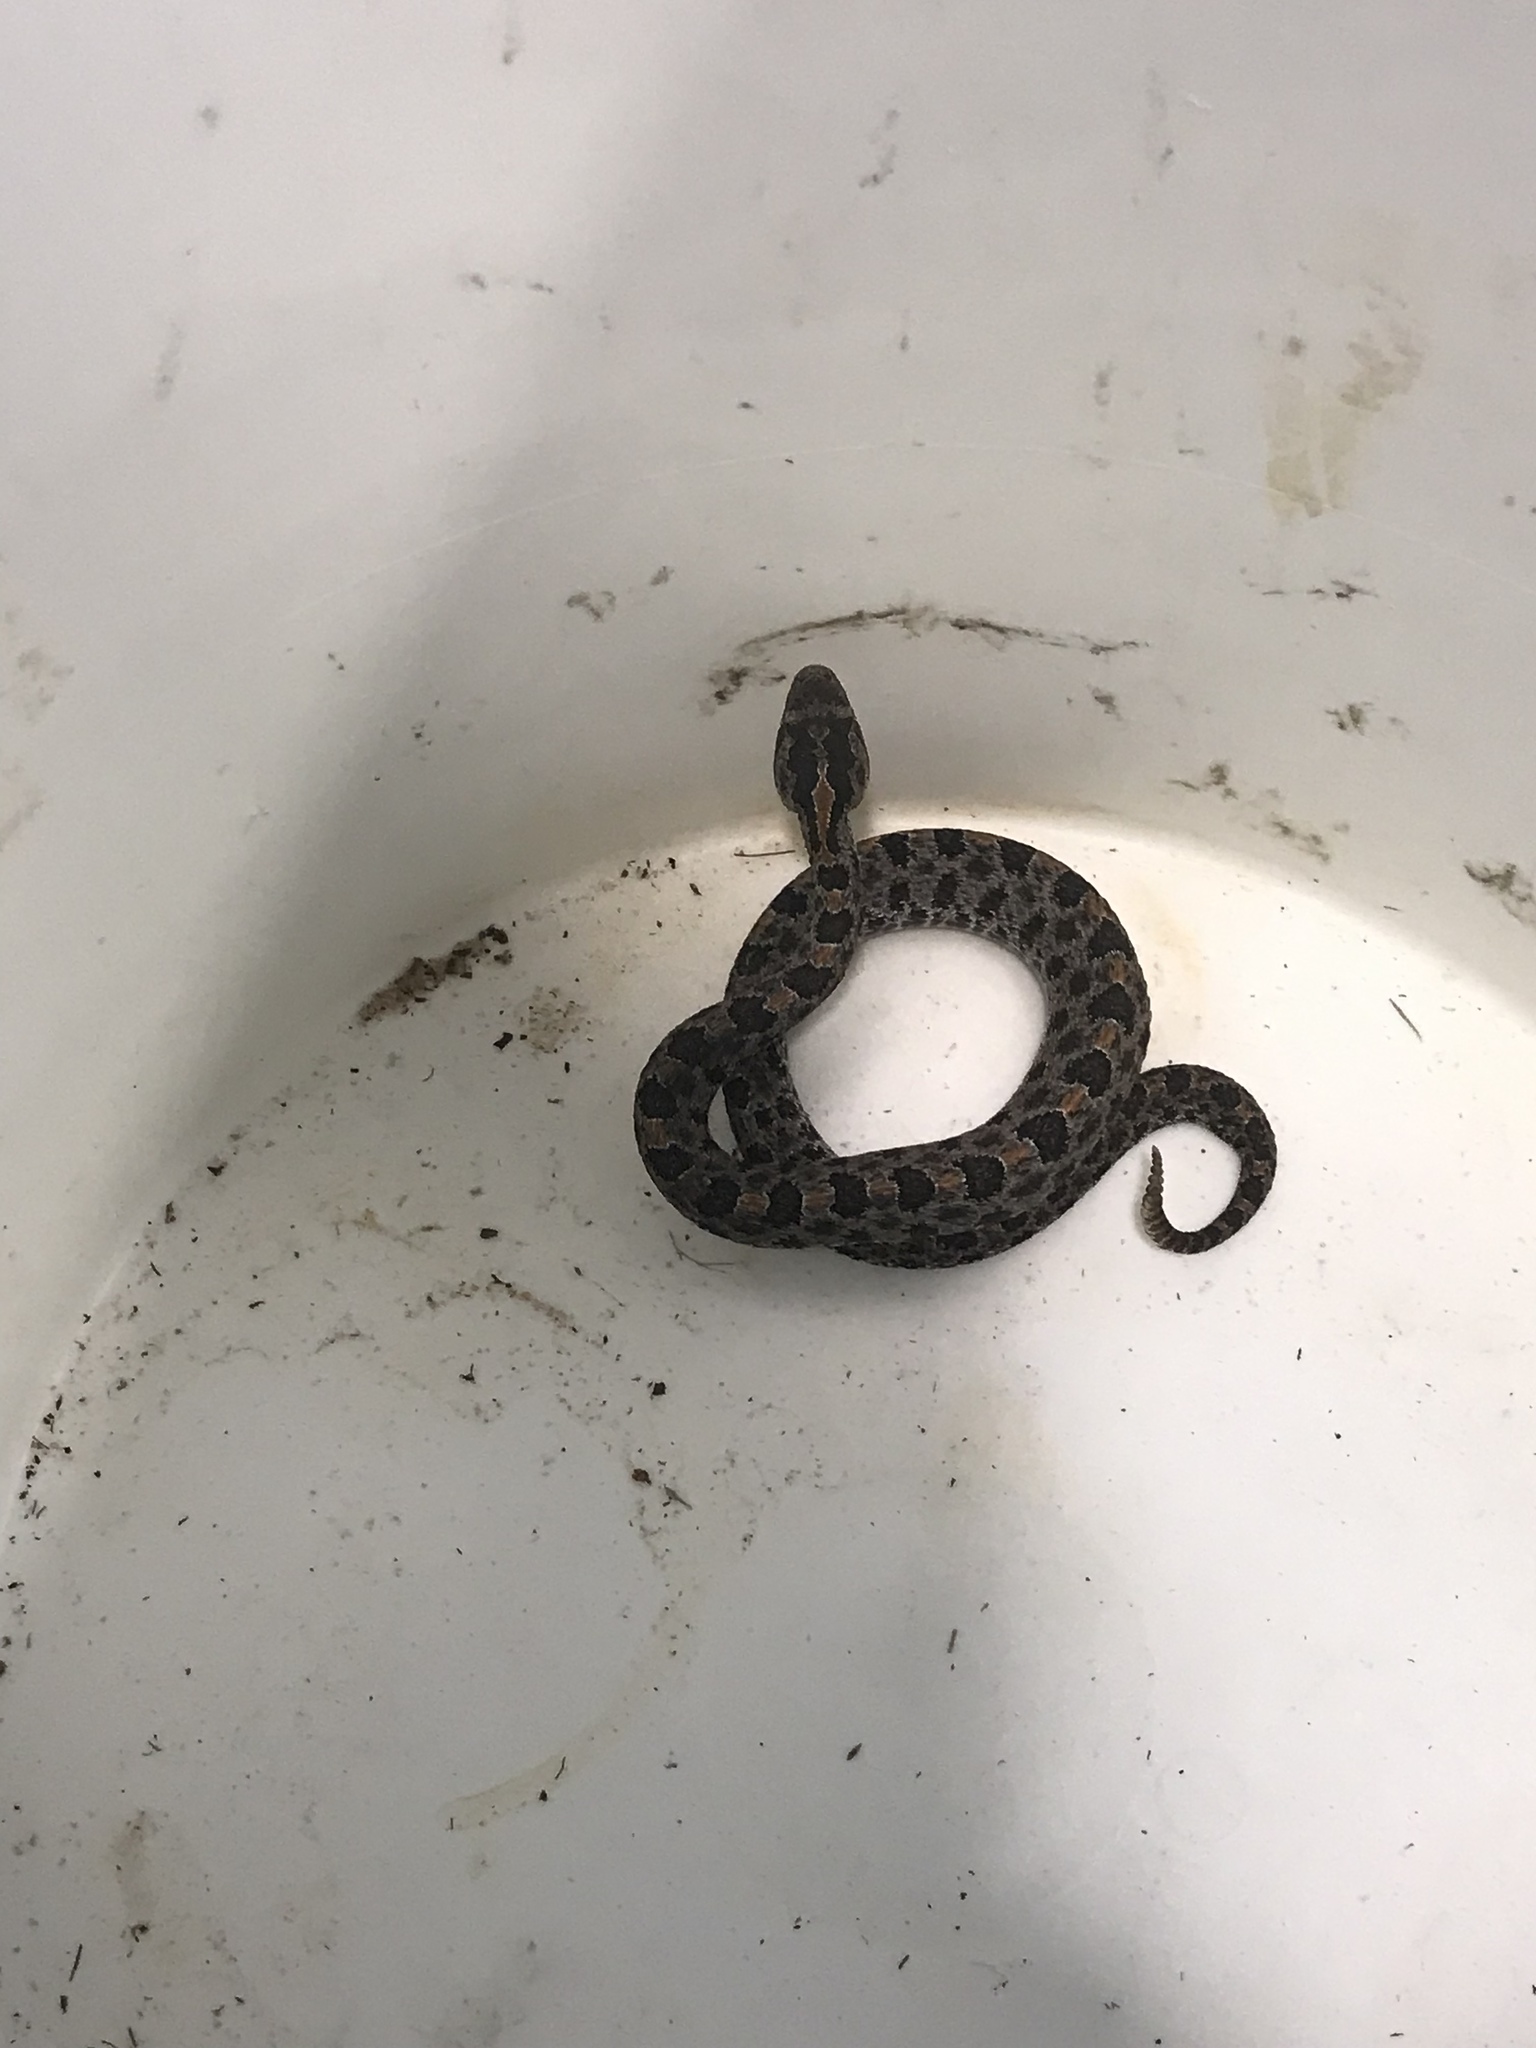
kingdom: Animalia
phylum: Chordata
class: Squamata
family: Viperidae
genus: Sistrurus
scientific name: Sistrurus miliarius
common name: Pygmy rattlesnake
